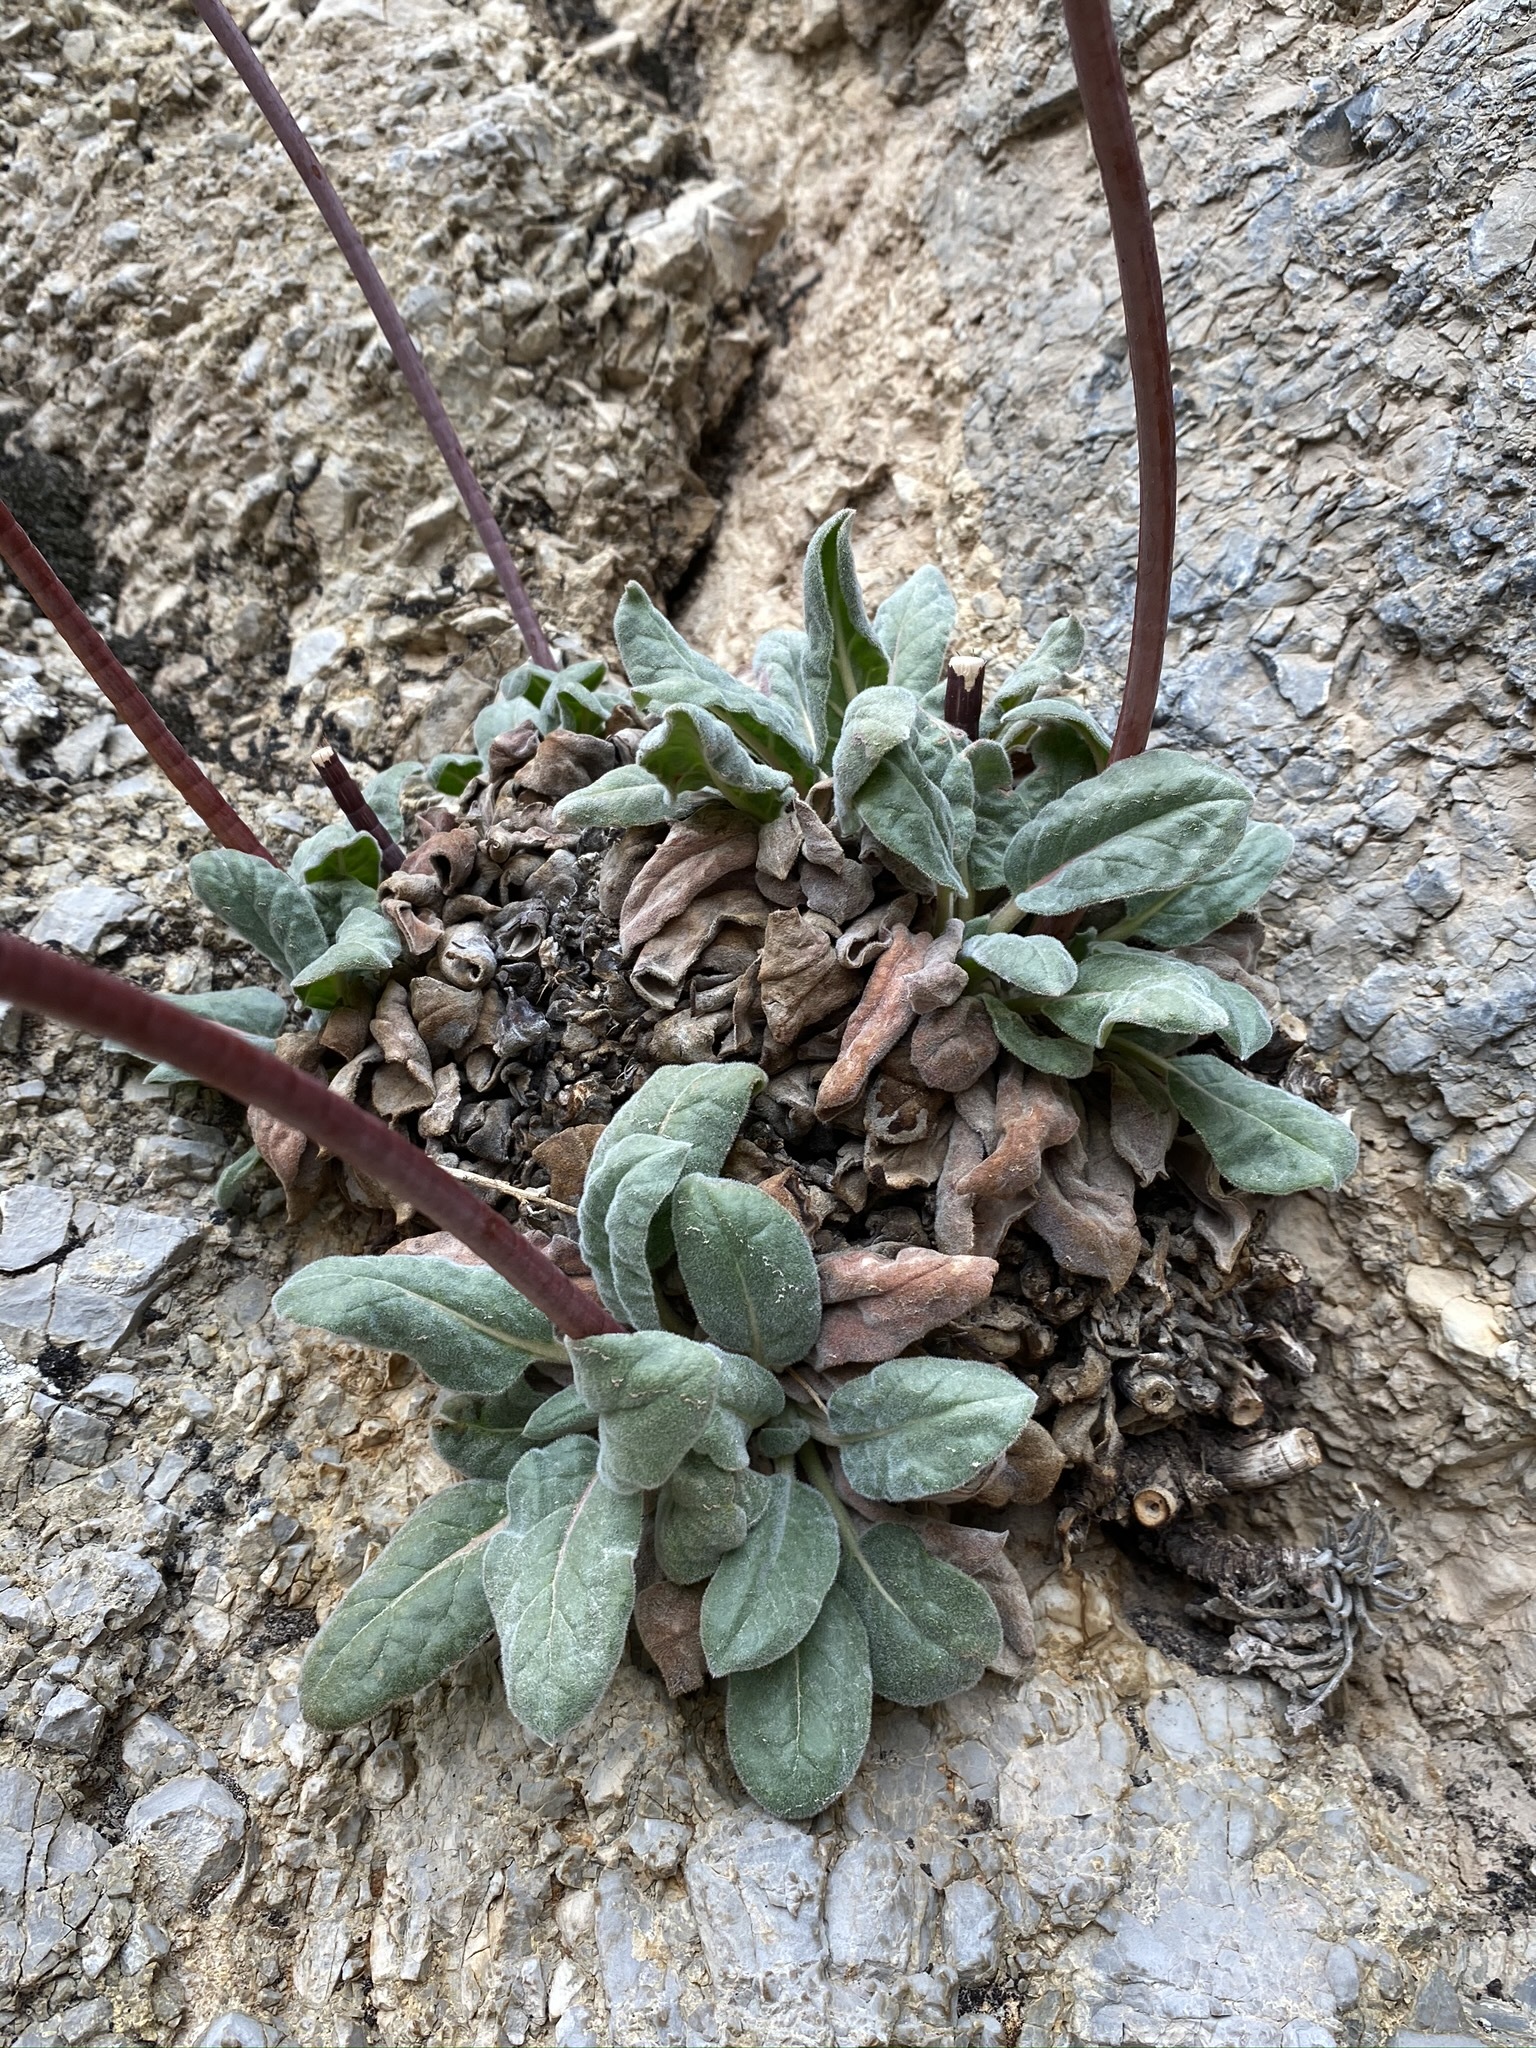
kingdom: Plantae
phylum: Tracheophyta
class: Magnoliopsida
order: Caryophyllales
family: Polygonaceae
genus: Eriogonum
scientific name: Eriogonum intrafractum
